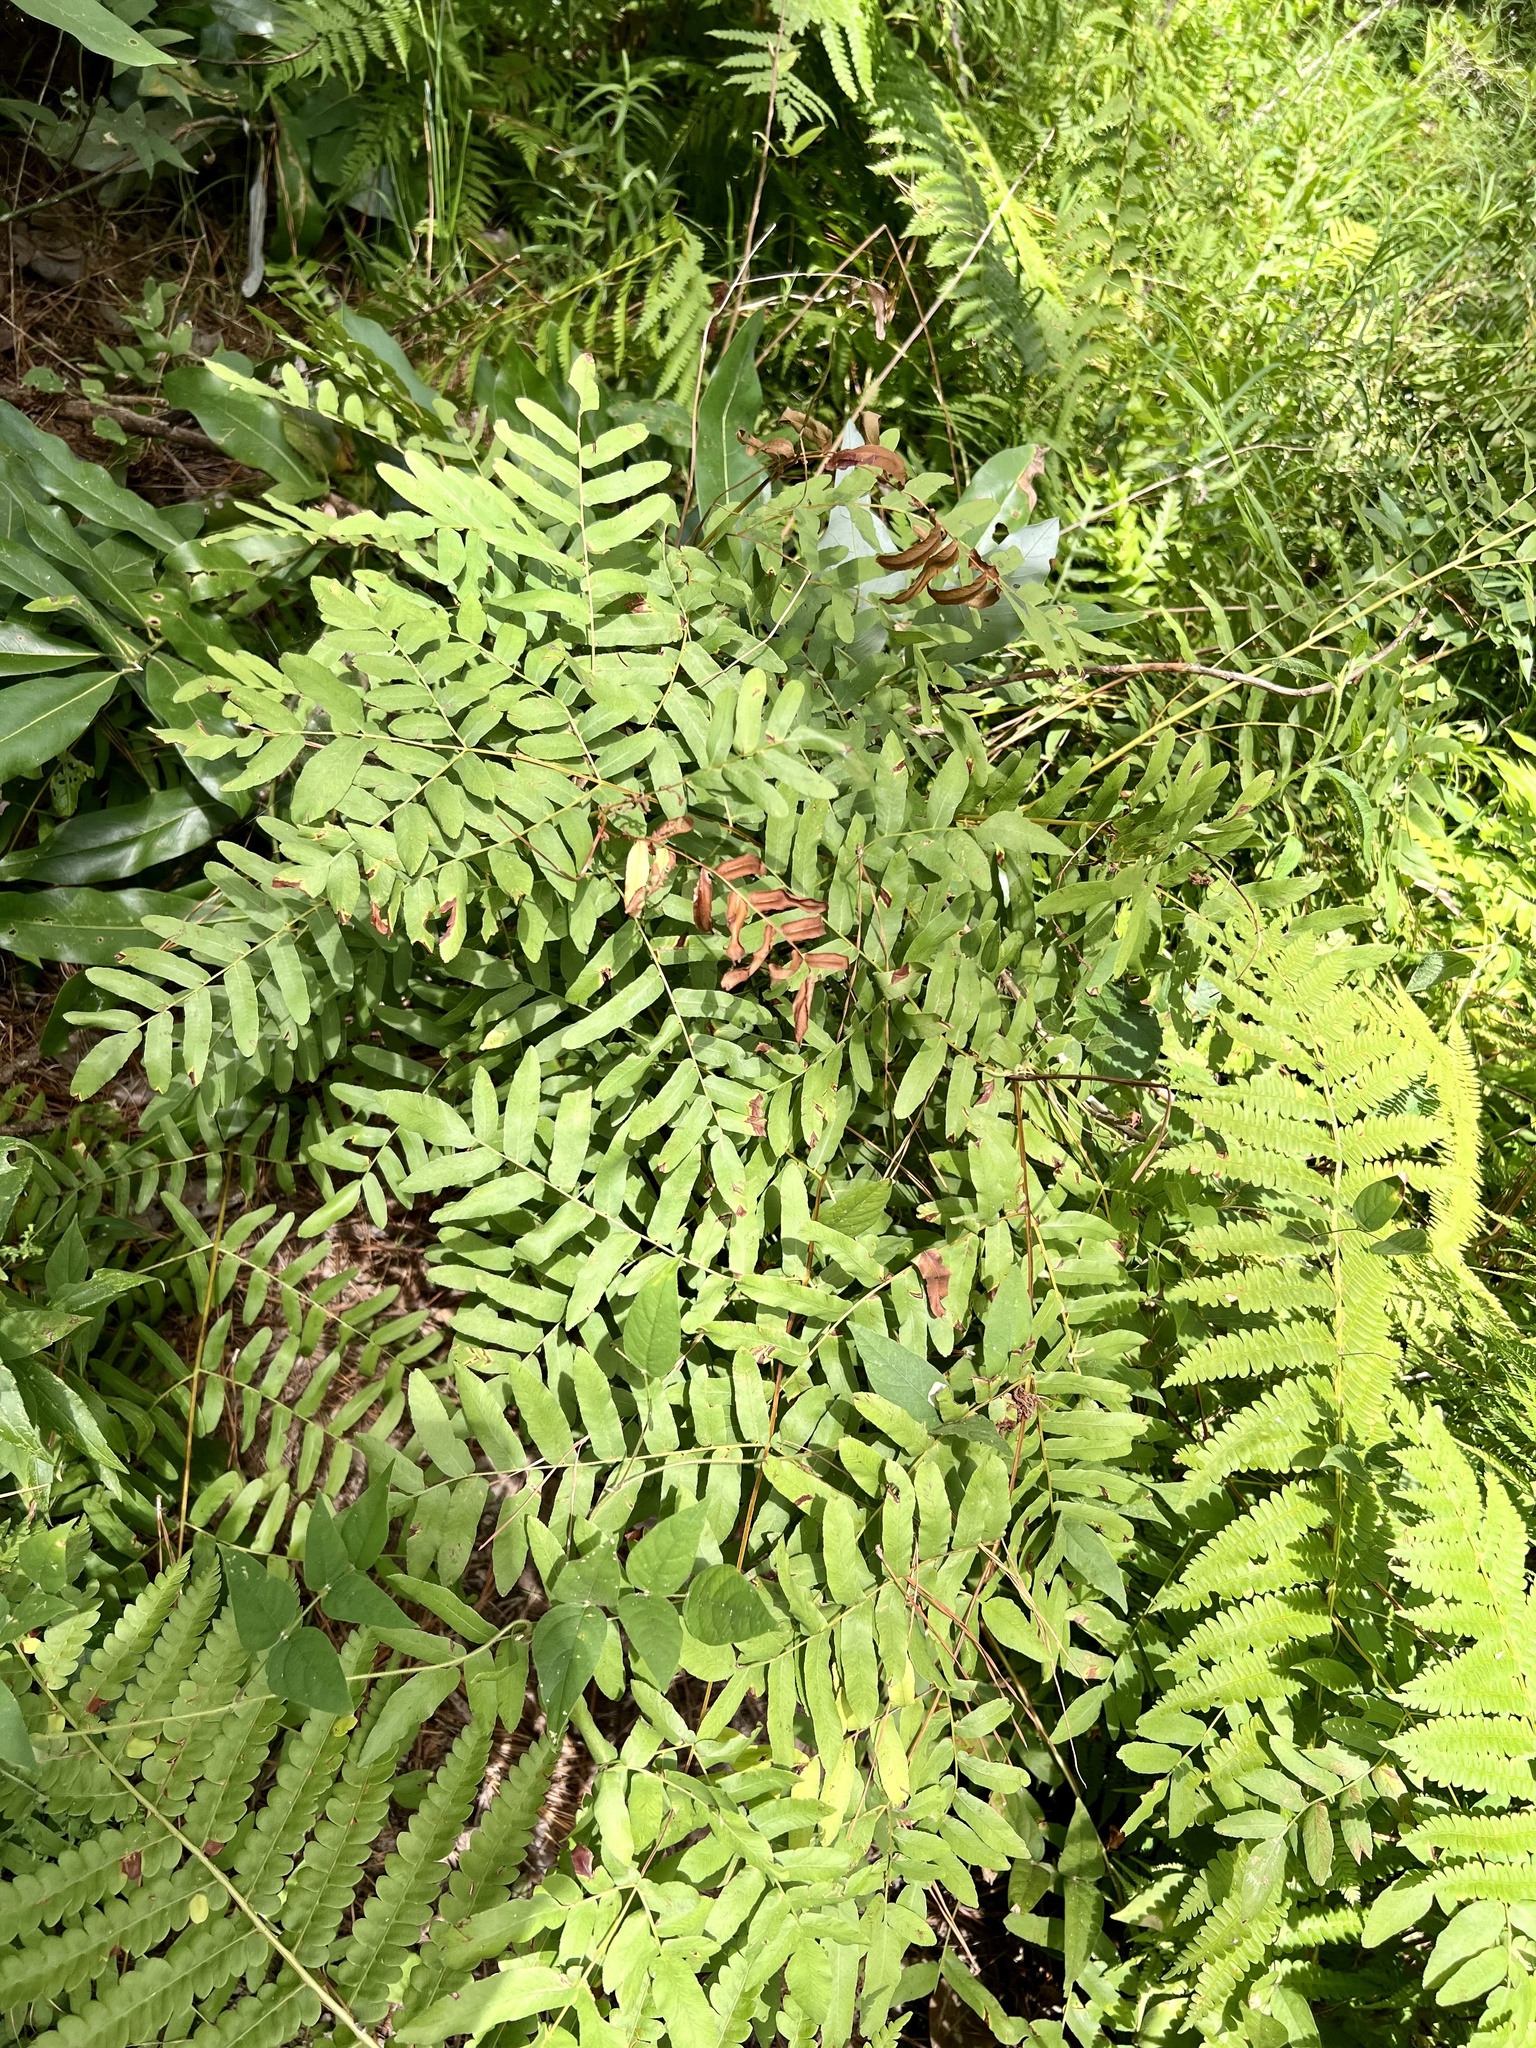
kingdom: Plantae
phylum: Tracheophyta
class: Polypodiopsida
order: Osmundales
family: Osmundaceae
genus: Osmunda
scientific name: Osmunda spectabilis
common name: American royal fern
